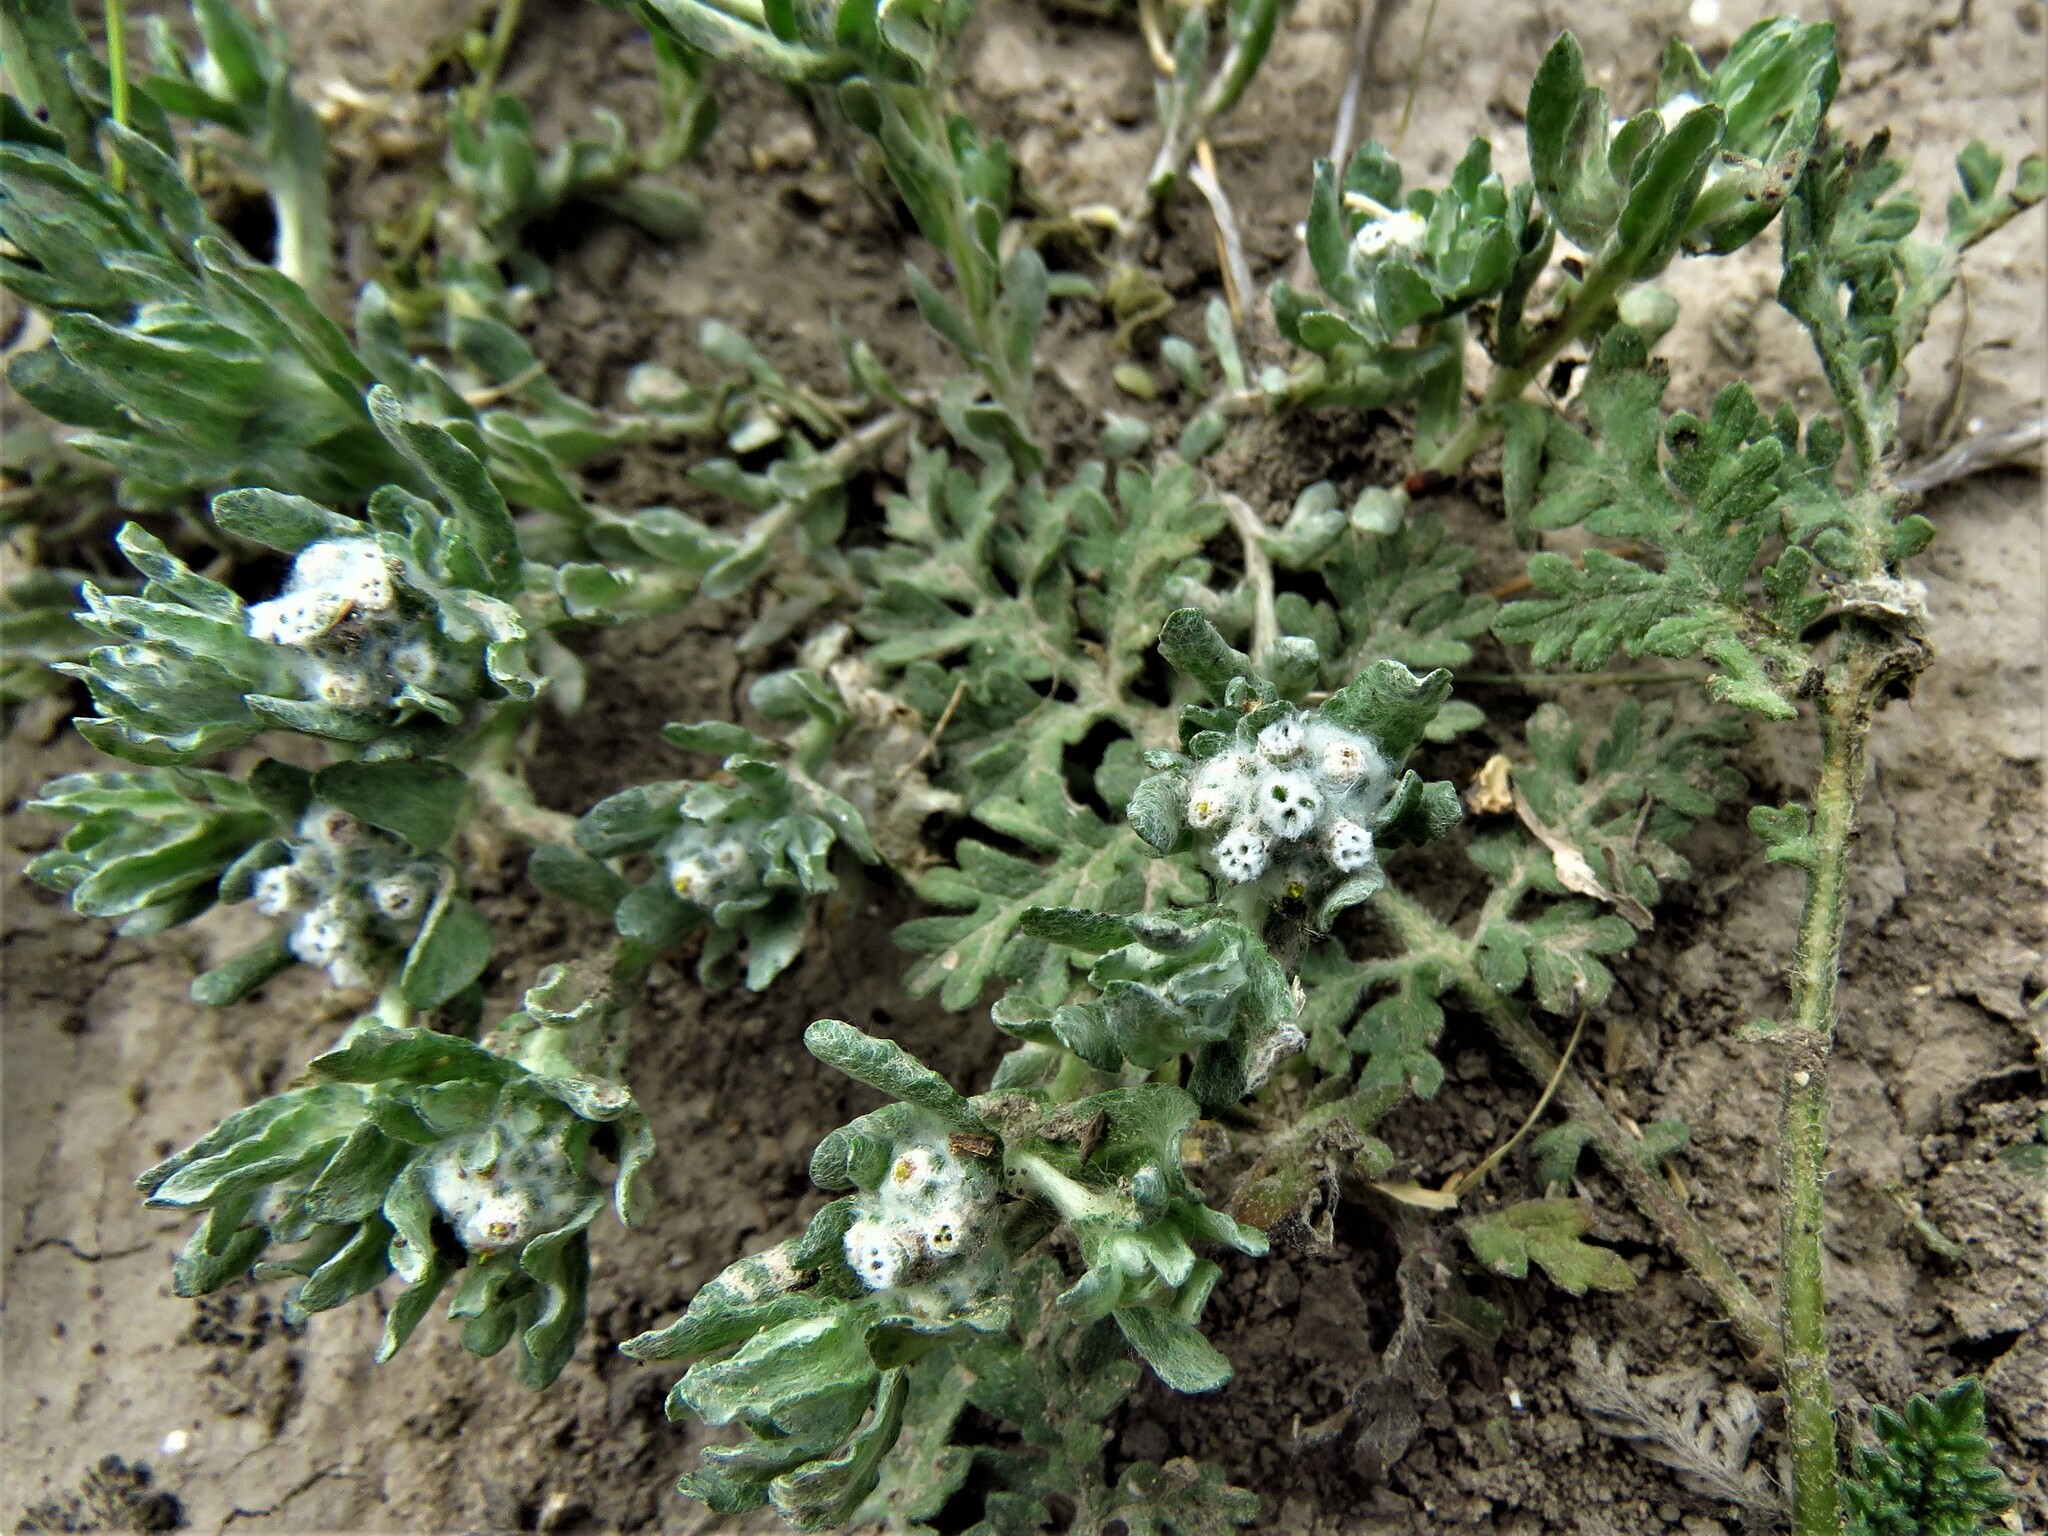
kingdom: Plantae
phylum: Tracheophyta
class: Magnoliopsida
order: Asterales
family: Asteraceae
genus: Diaperia
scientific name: Diaperia verna
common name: Many-stem rabbit-tobacco
